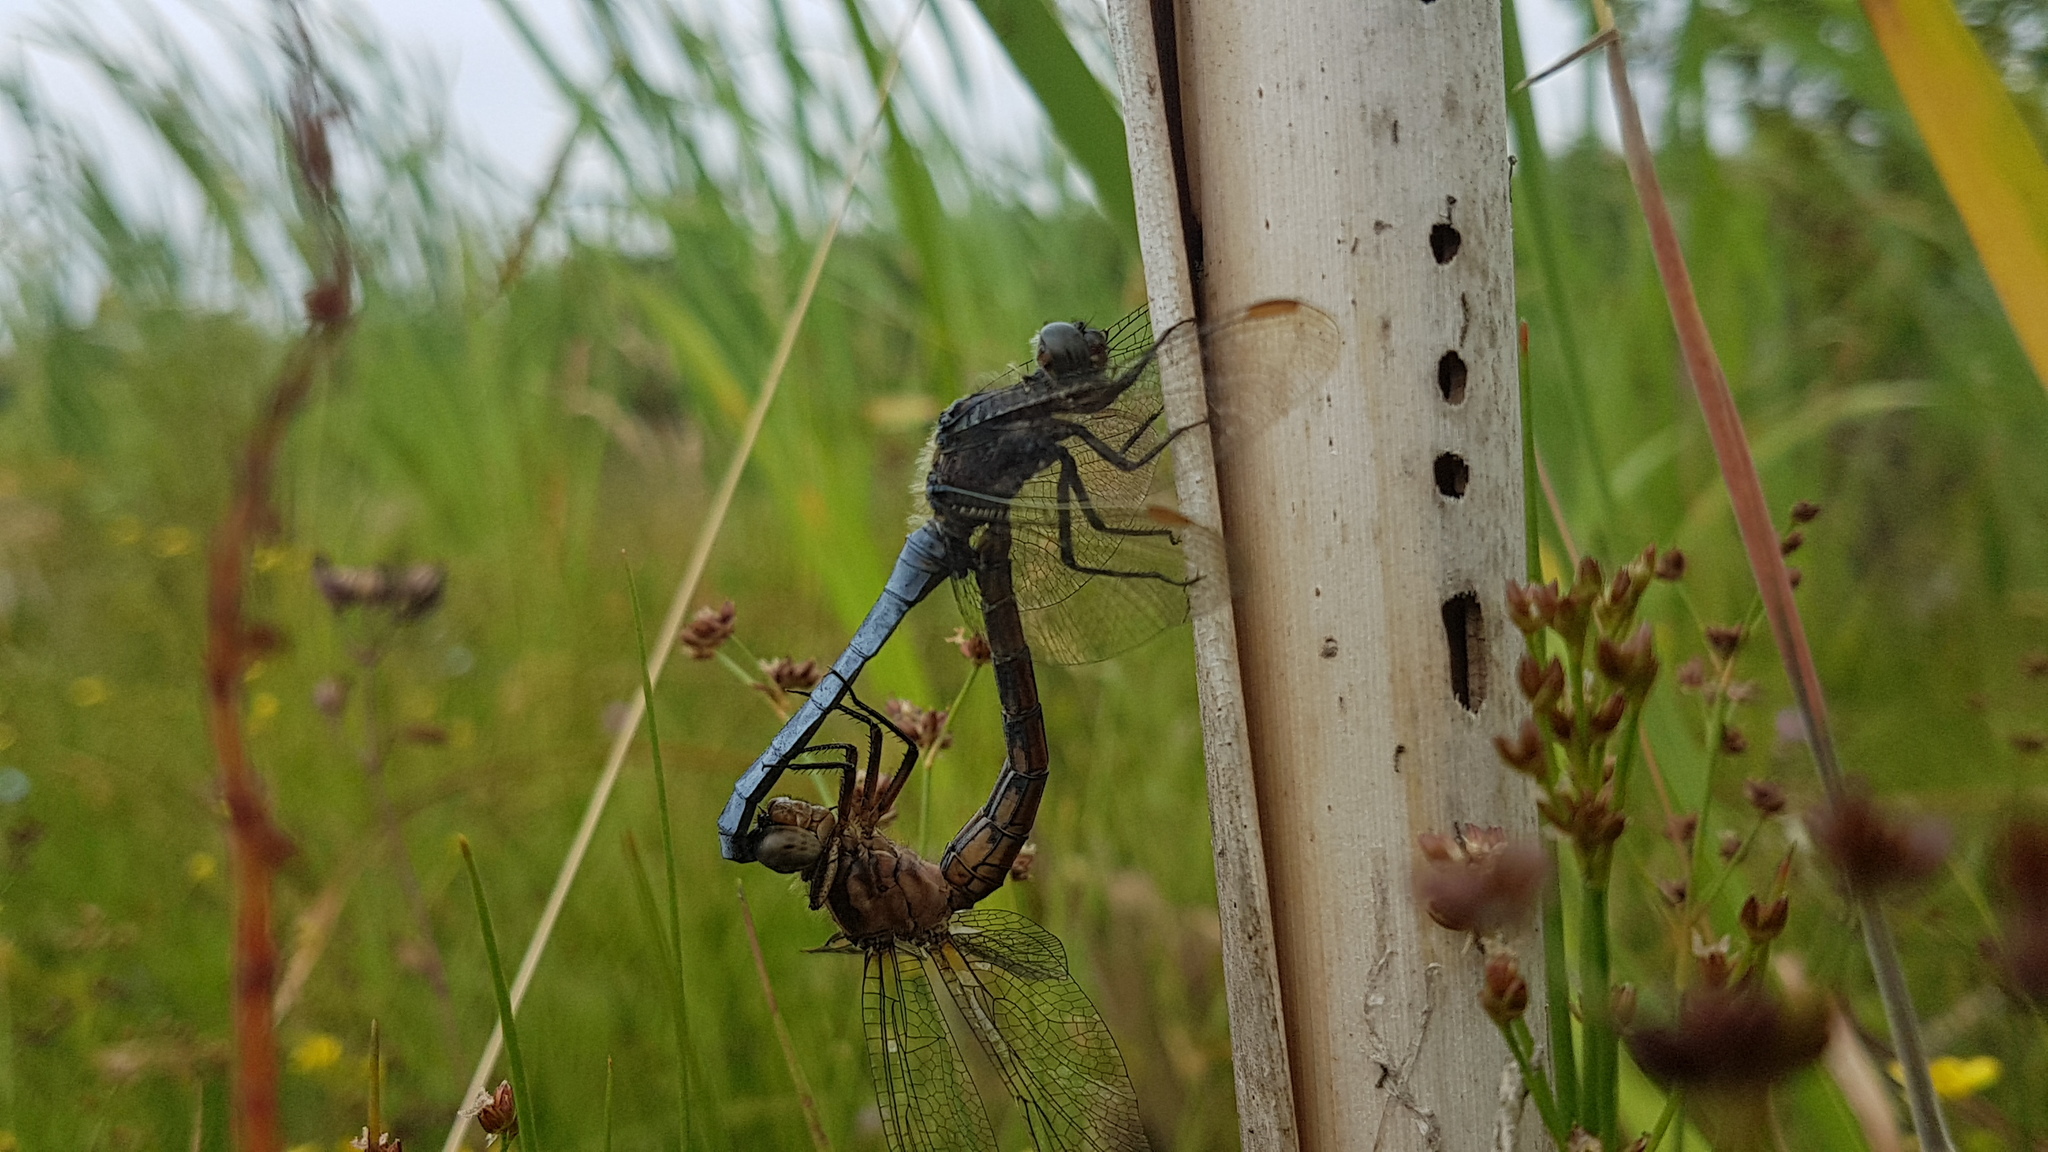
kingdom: Animalia
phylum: Arthropoda
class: Insecta
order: Odonata
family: Libellulidae
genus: Orthetrum
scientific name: Orthetrum coerulescens
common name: Keeled skimmer
